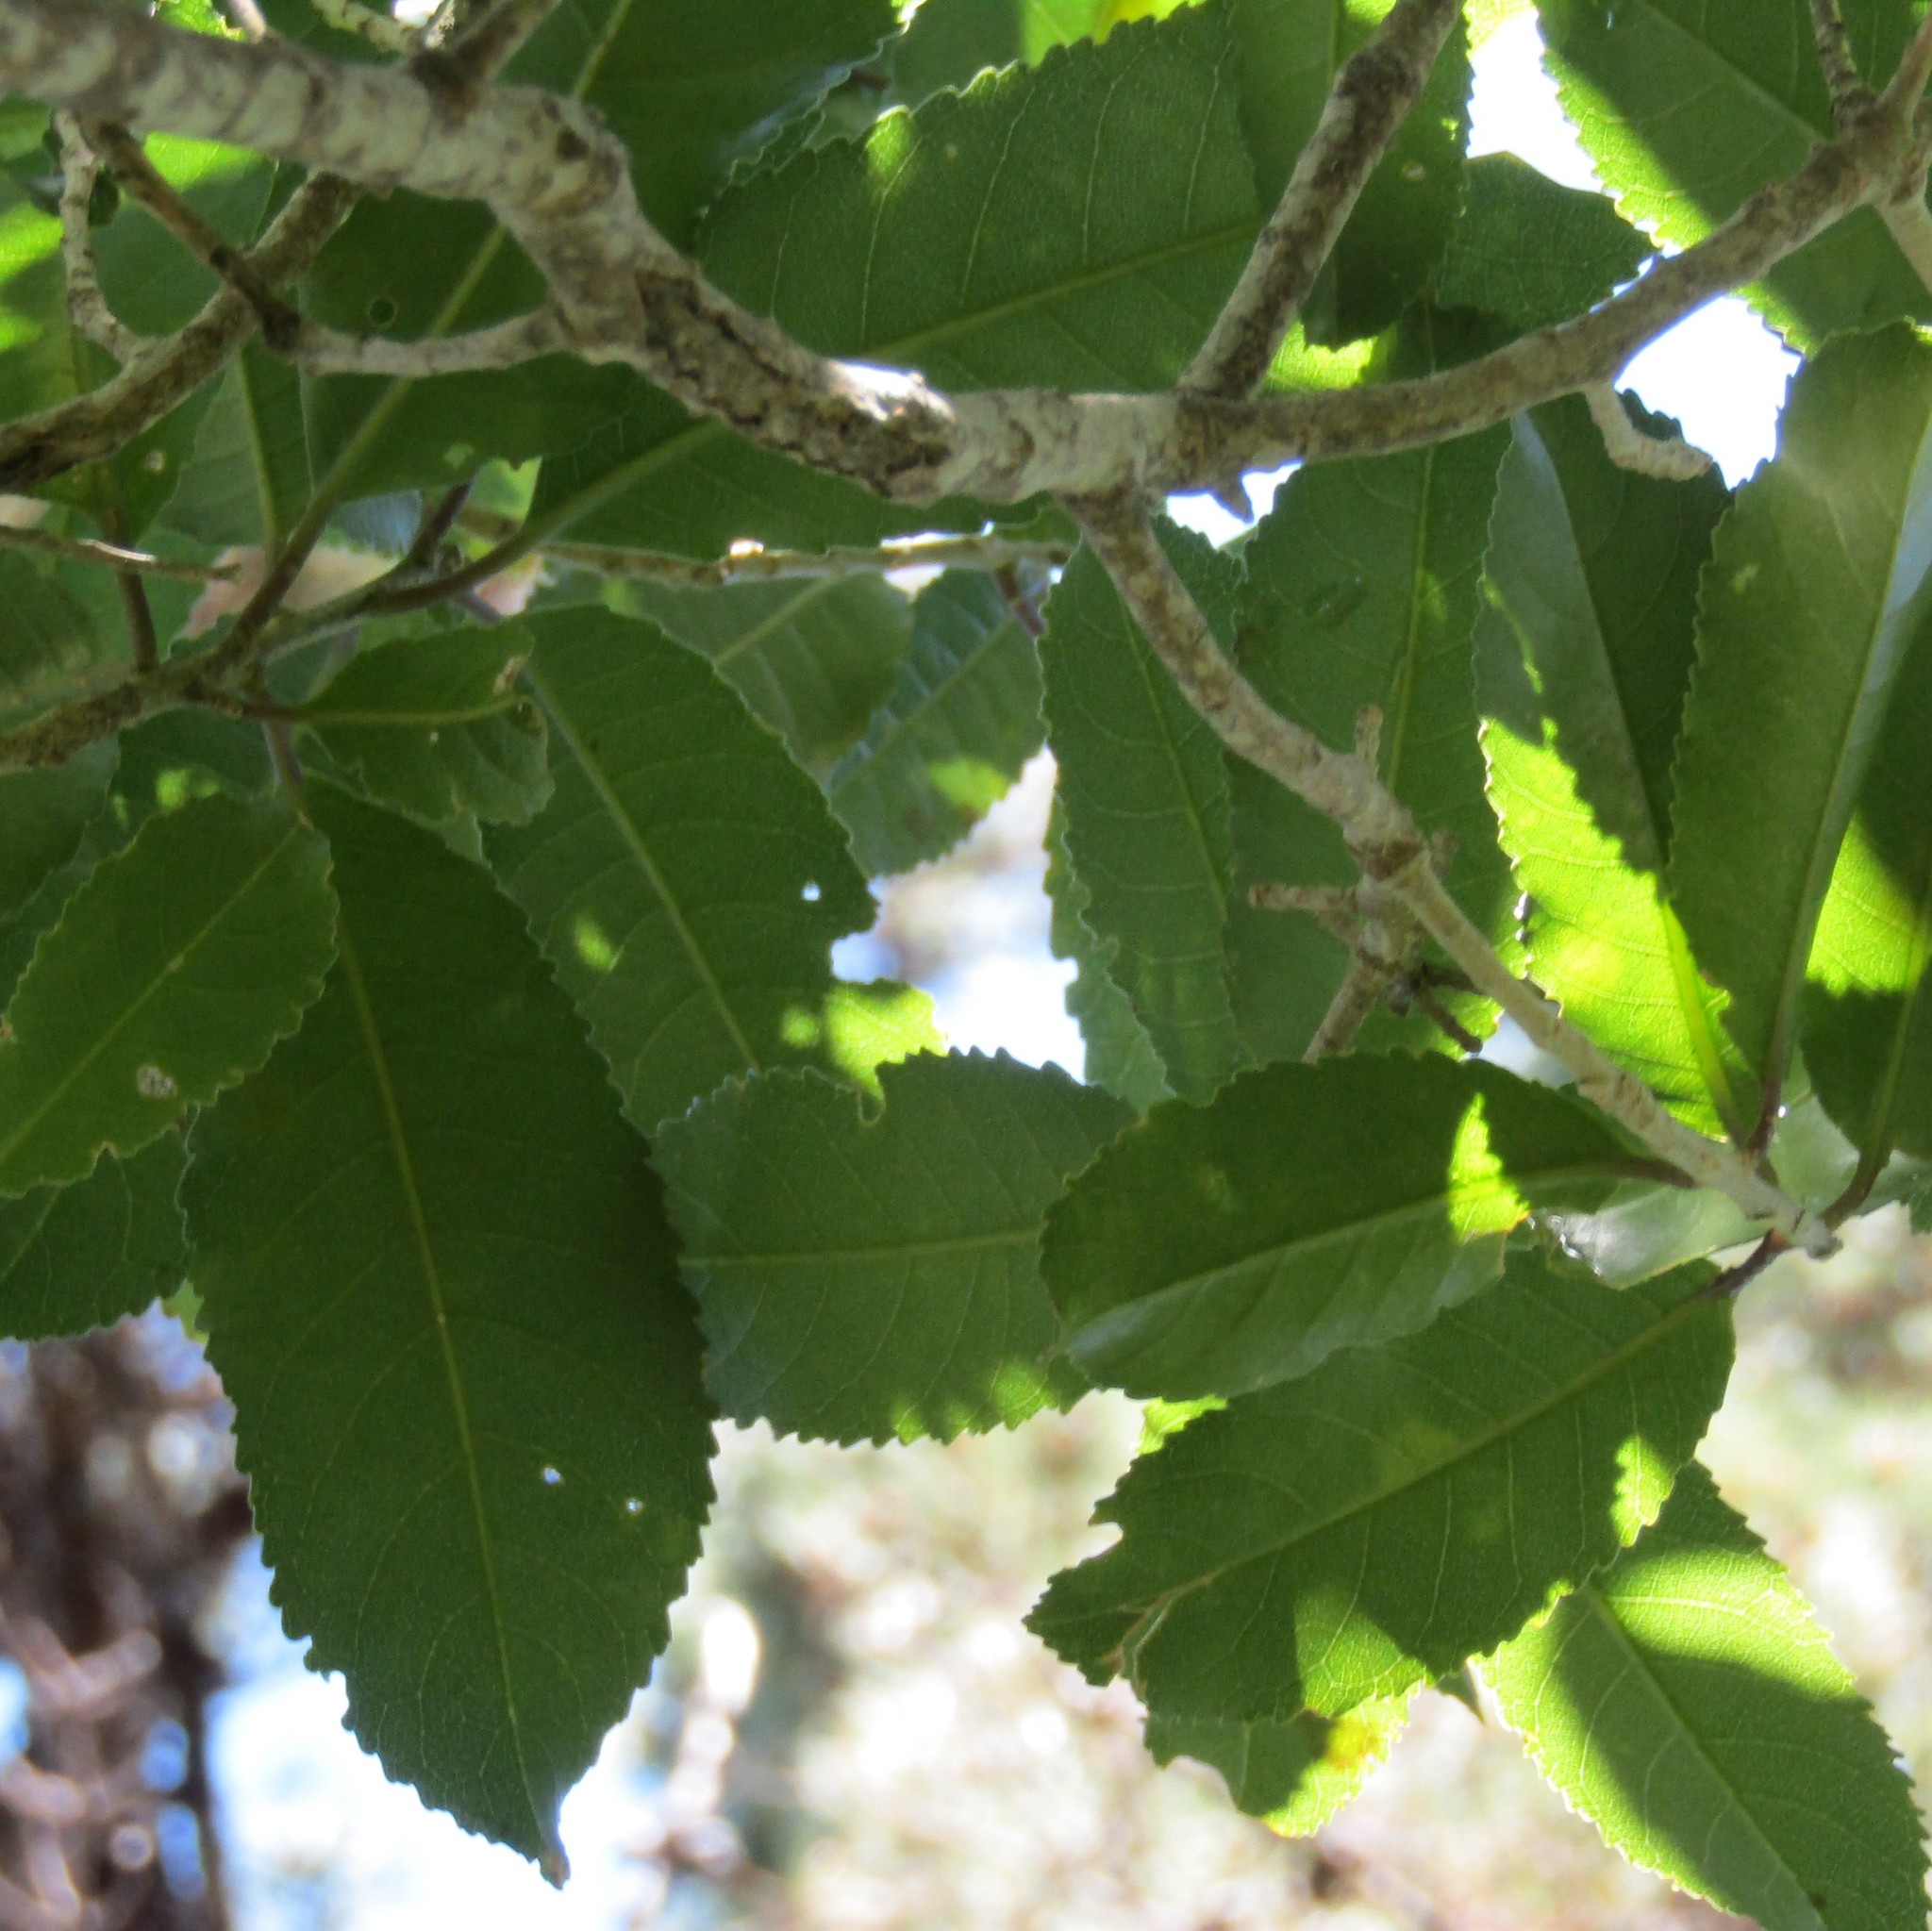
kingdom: Plantae
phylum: Tracheophyta
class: Magnoliopsida
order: Malpighiales
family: Violaceae
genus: Melicytus
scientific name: Melicytus ramiflorus
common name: Mahoe
